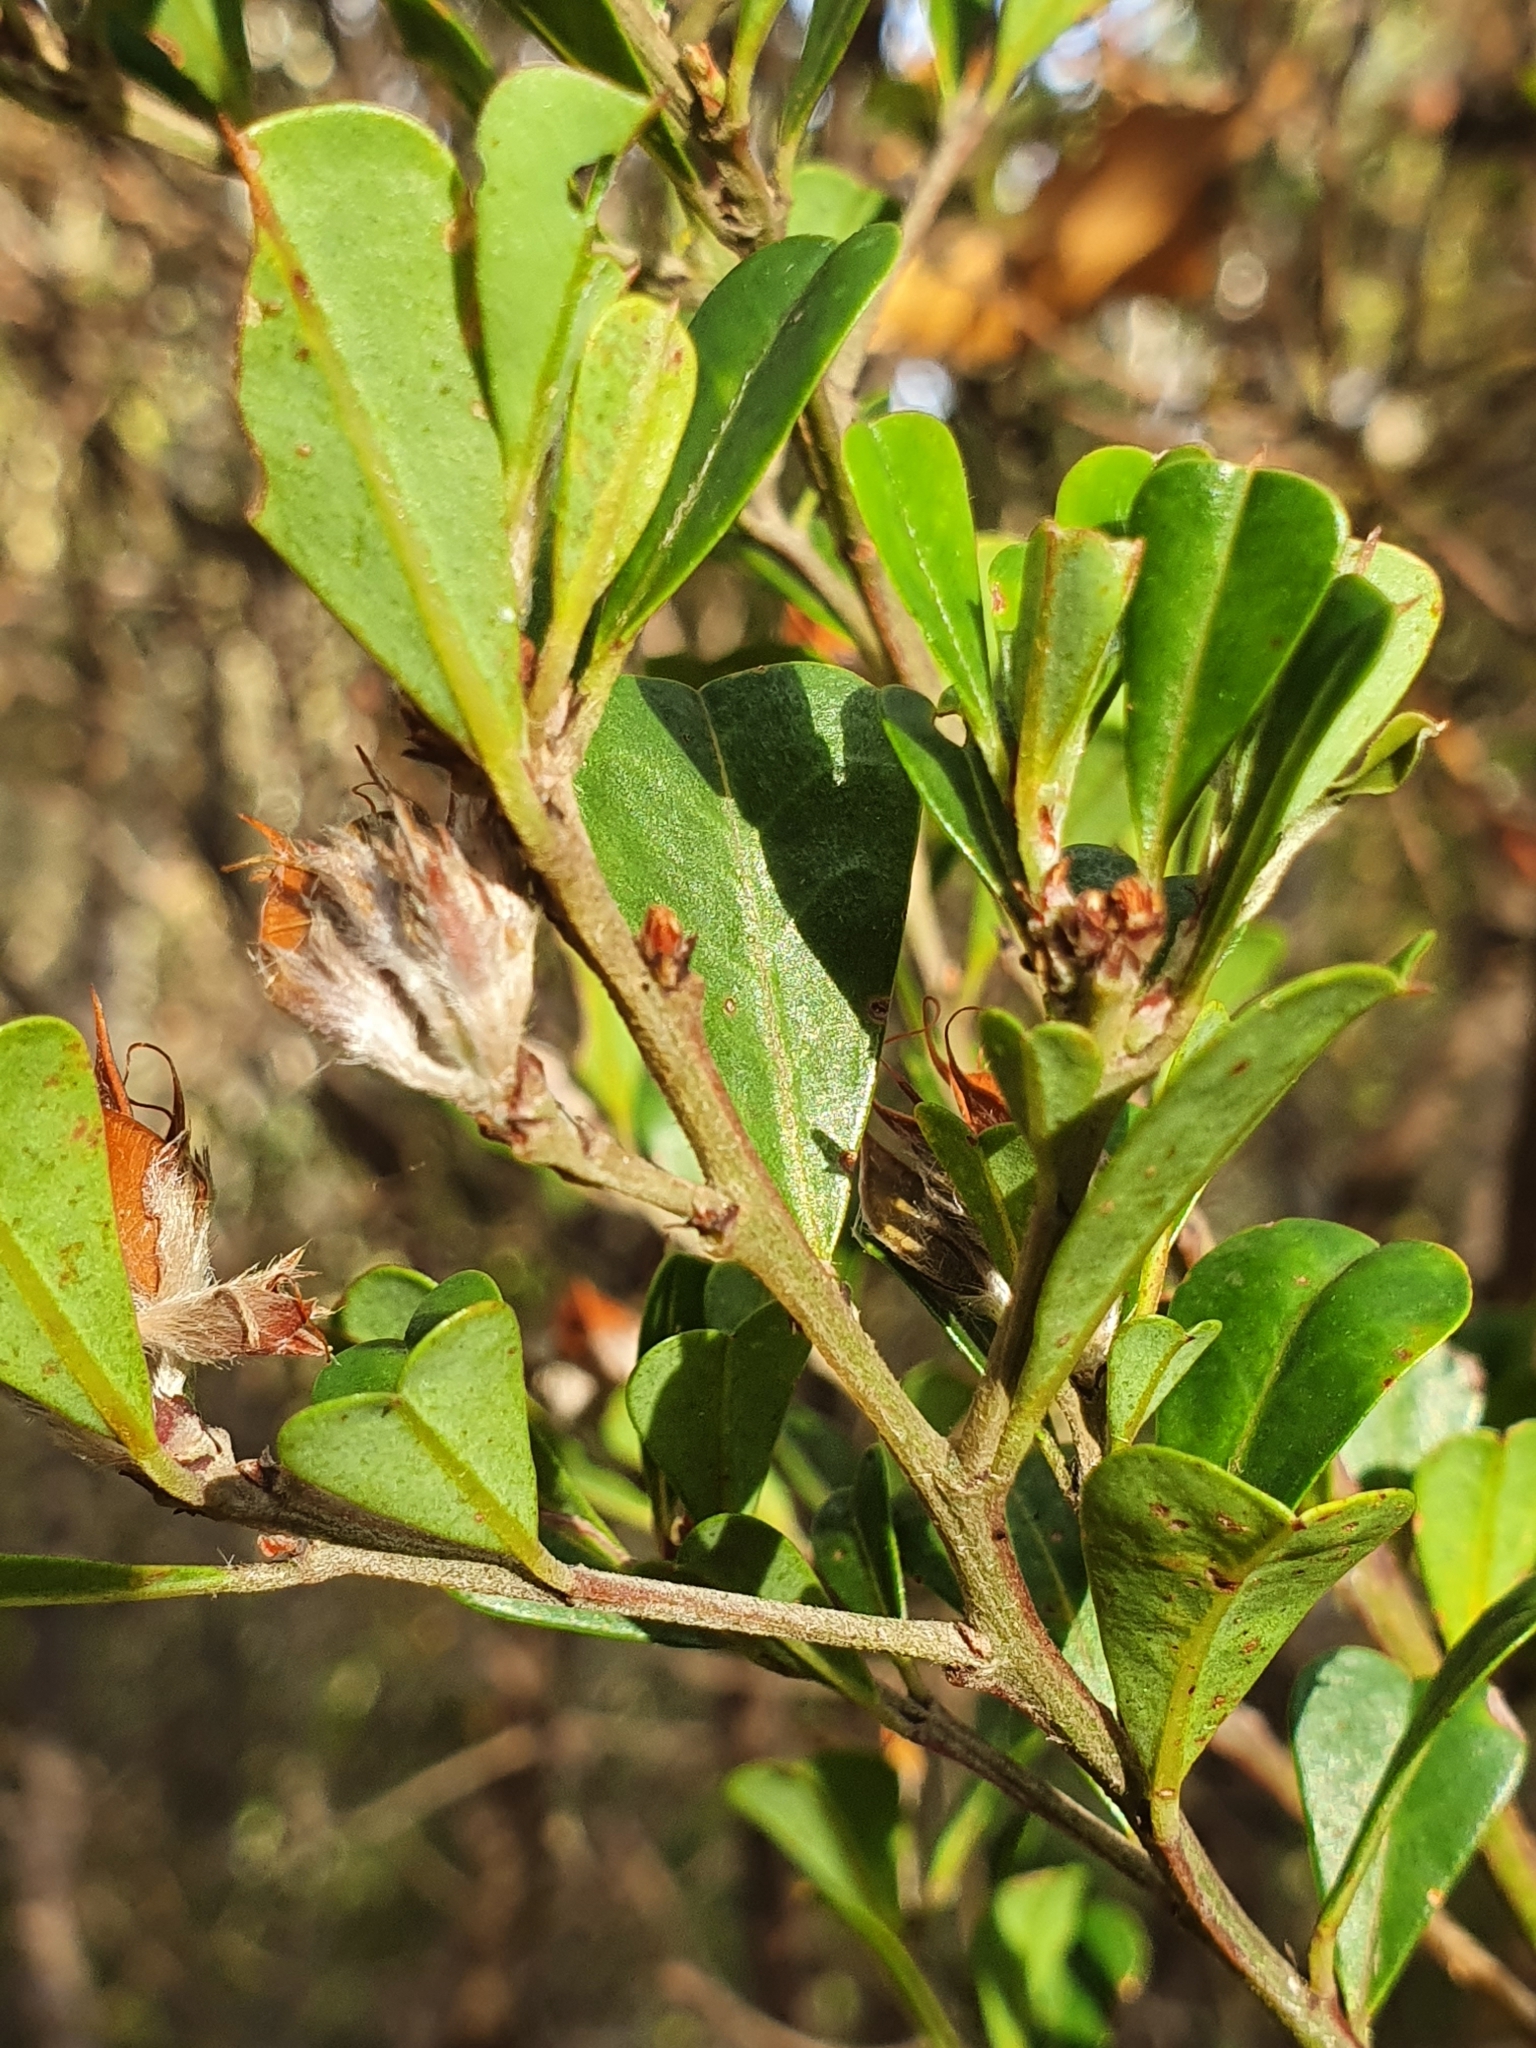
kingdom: Plantae
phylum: Tracheophyta
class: Magnoliopsida
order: Fabales
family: Fabaceae
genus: Pultenaea
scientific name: Pultenaea daphnoides
